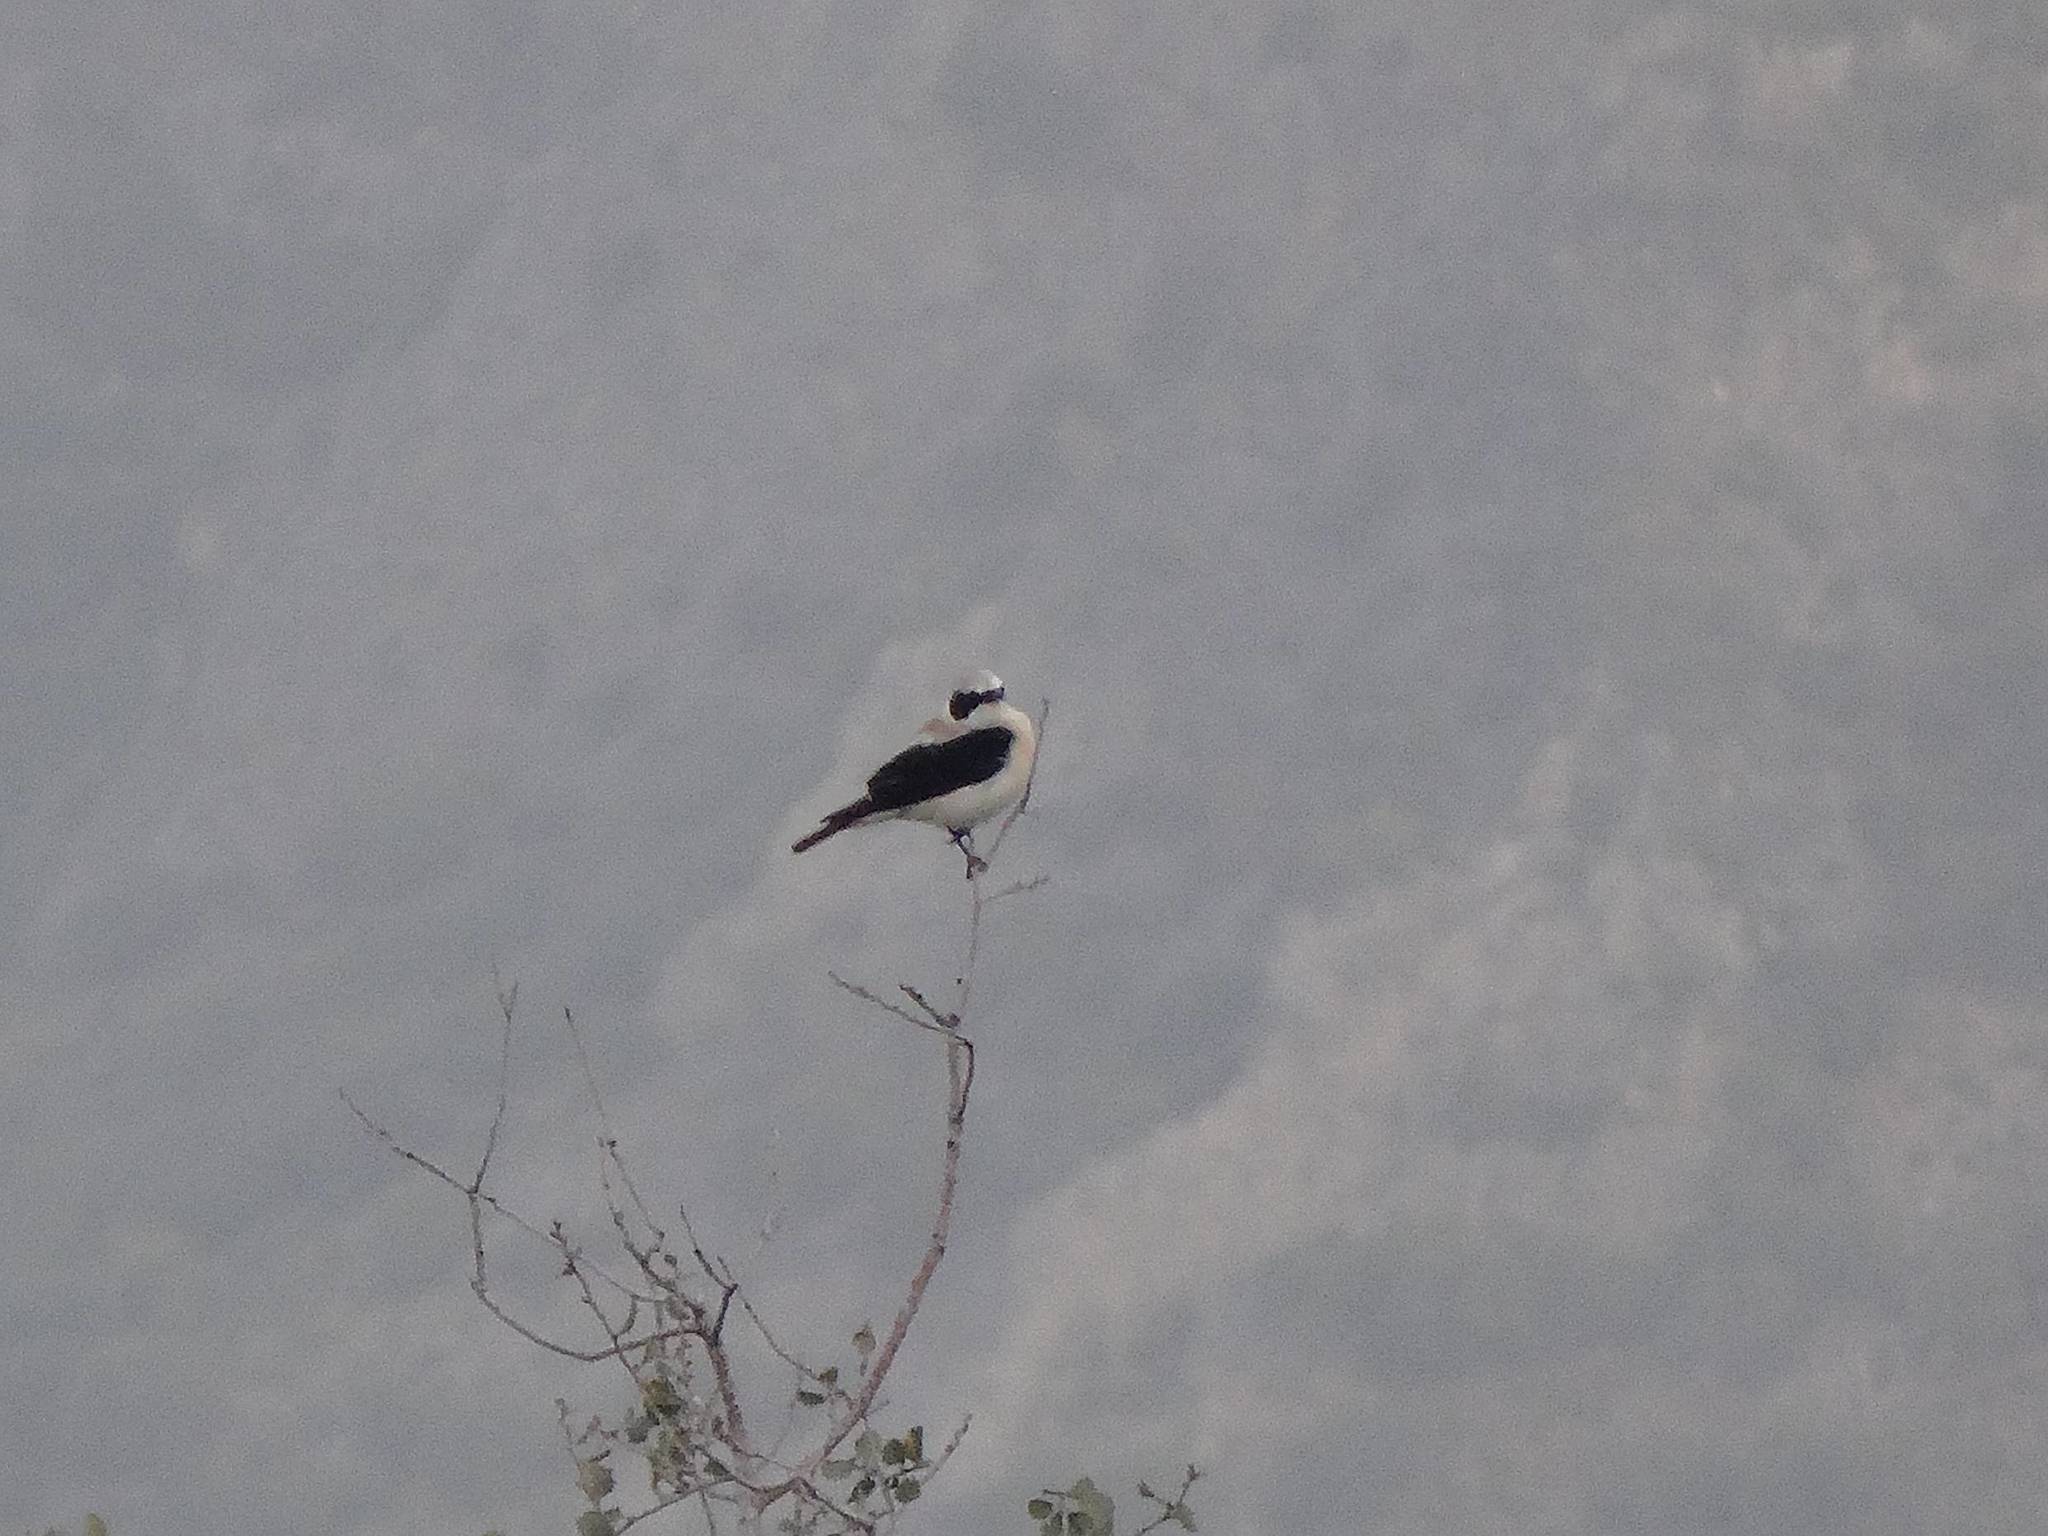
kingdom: Animalia
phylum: Chordata
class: Aves
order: Passeriformes
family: Muscicapidae
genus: Oenanthe
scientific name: Oenanthe hispanica
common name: Black-eared wheatear
